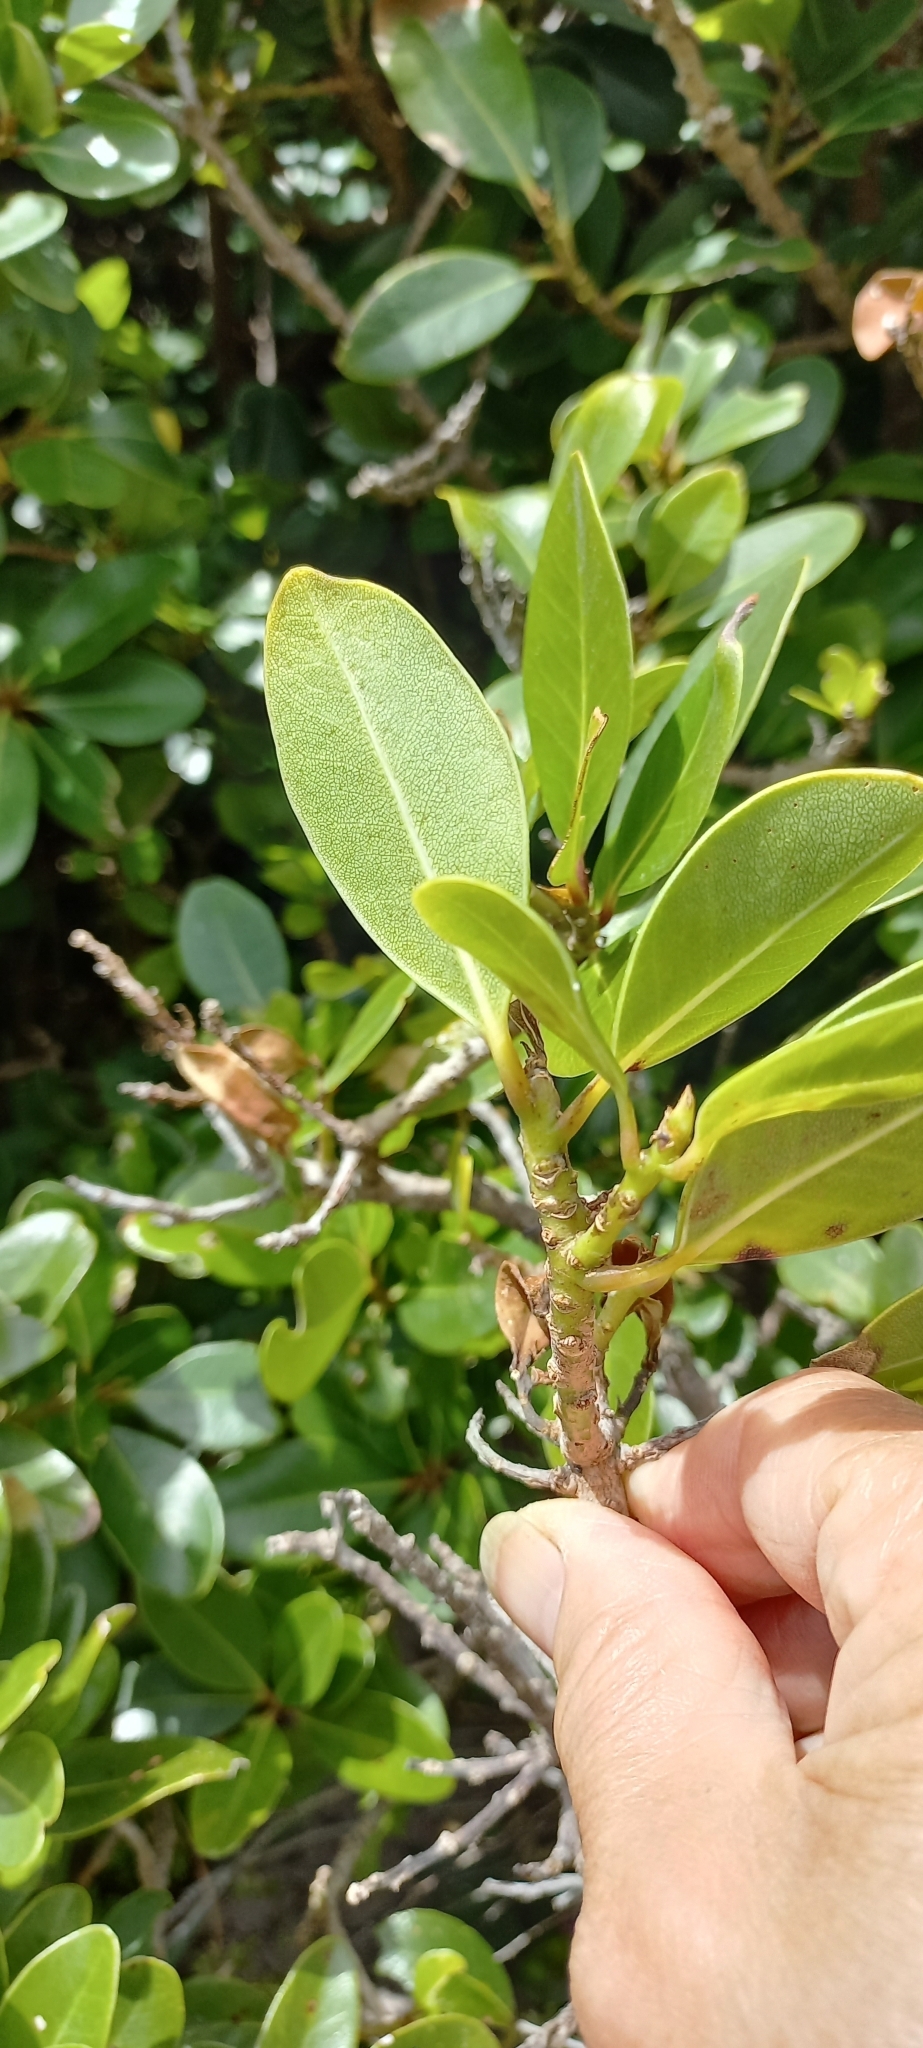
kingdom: Plantae
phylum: Tracheophyta
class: Magnoliopsida
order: Ericales
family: Sapotaceae
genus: Sideroxylon
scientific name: Sideroxylon inerme
